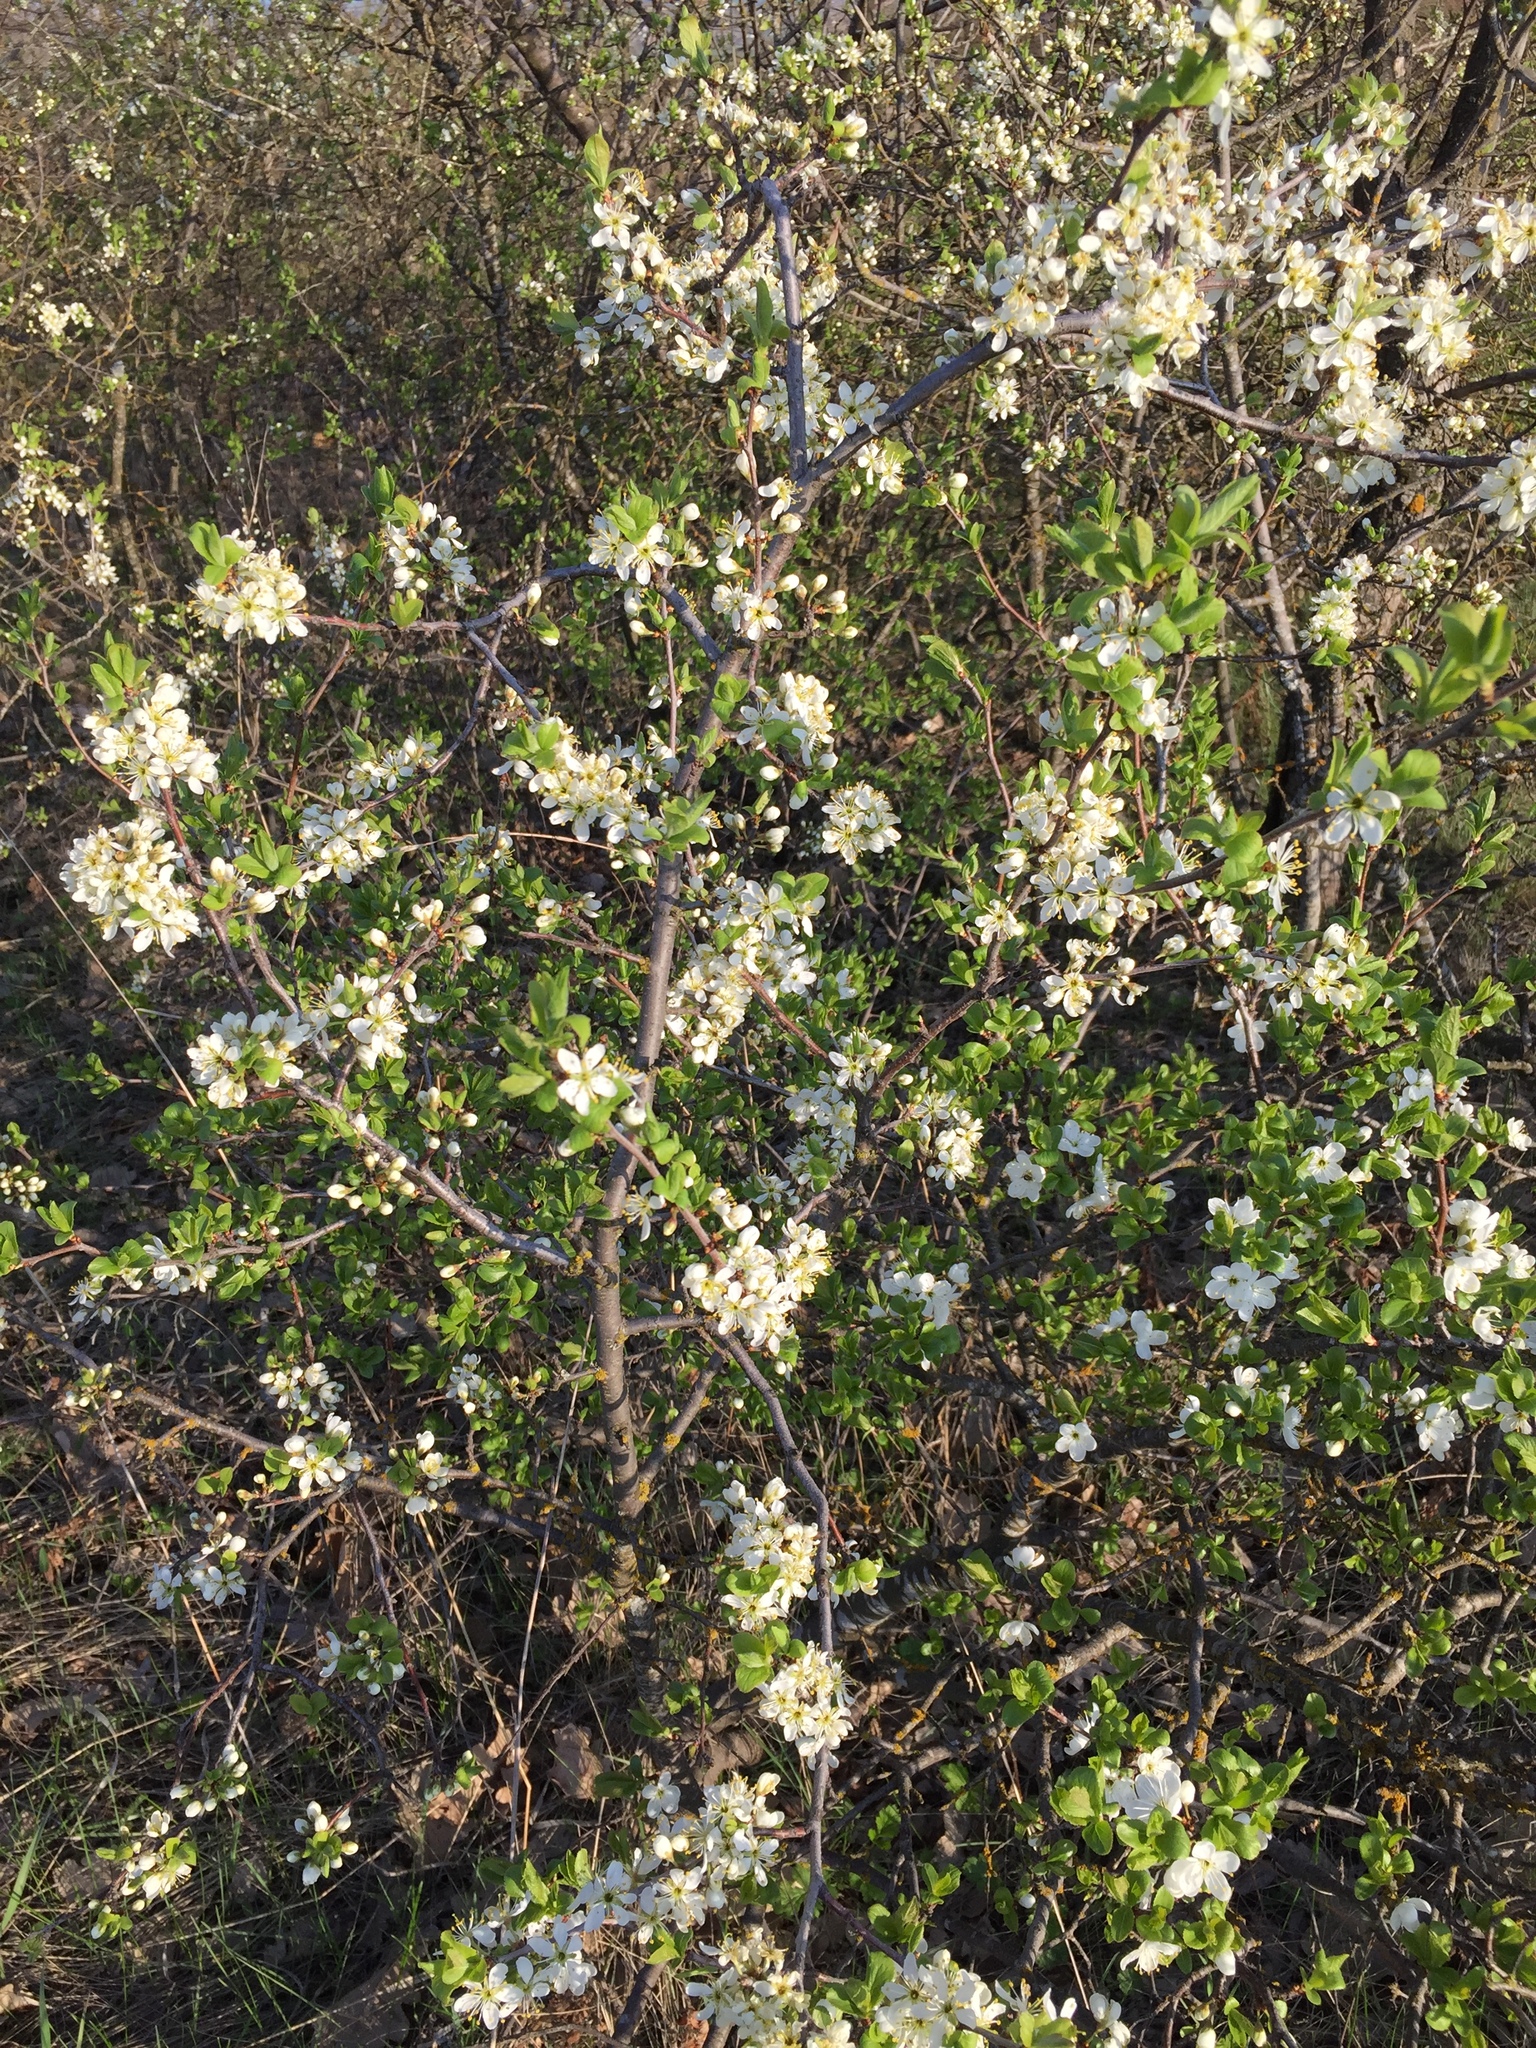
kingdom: Plantae
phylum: Tracheophyta
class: Magnoliopsida
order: Rosales
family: Rosaceae
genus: Prunus
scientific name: Prunus spinosa
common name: Blackthorn
